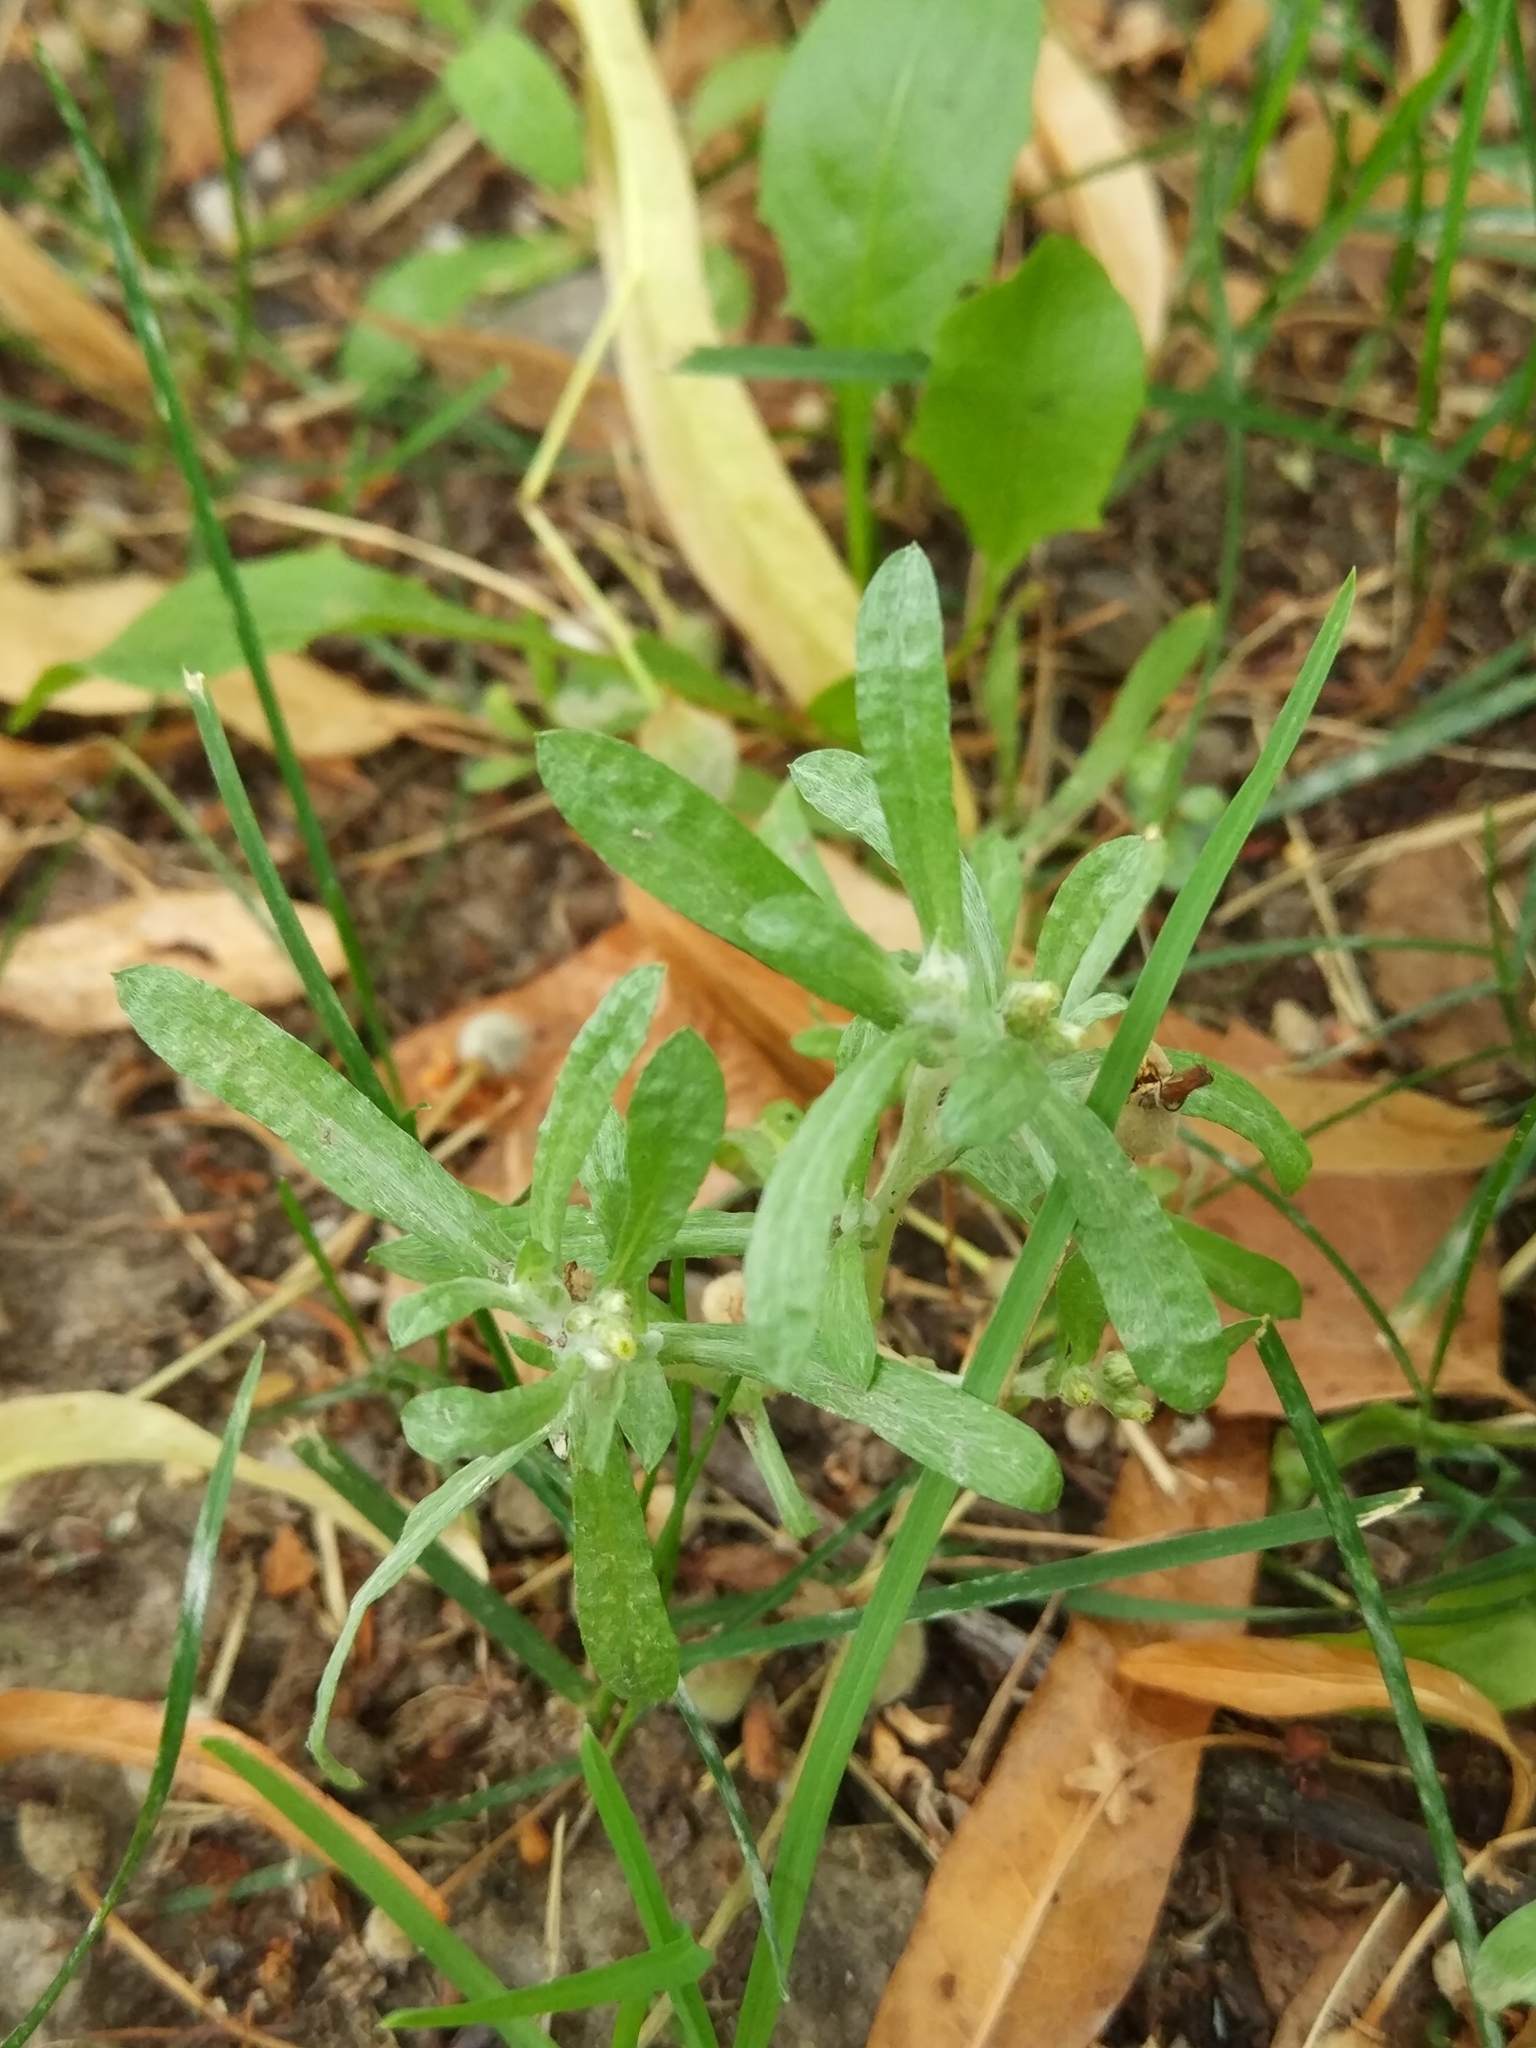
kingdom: Plantae
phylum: Tracheophyta
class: Magnoliopsida
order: Asterales
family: Asteraceae
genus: Gnaphalium
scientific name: Gnaphalium uliginosum
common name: Marsh cudweed
